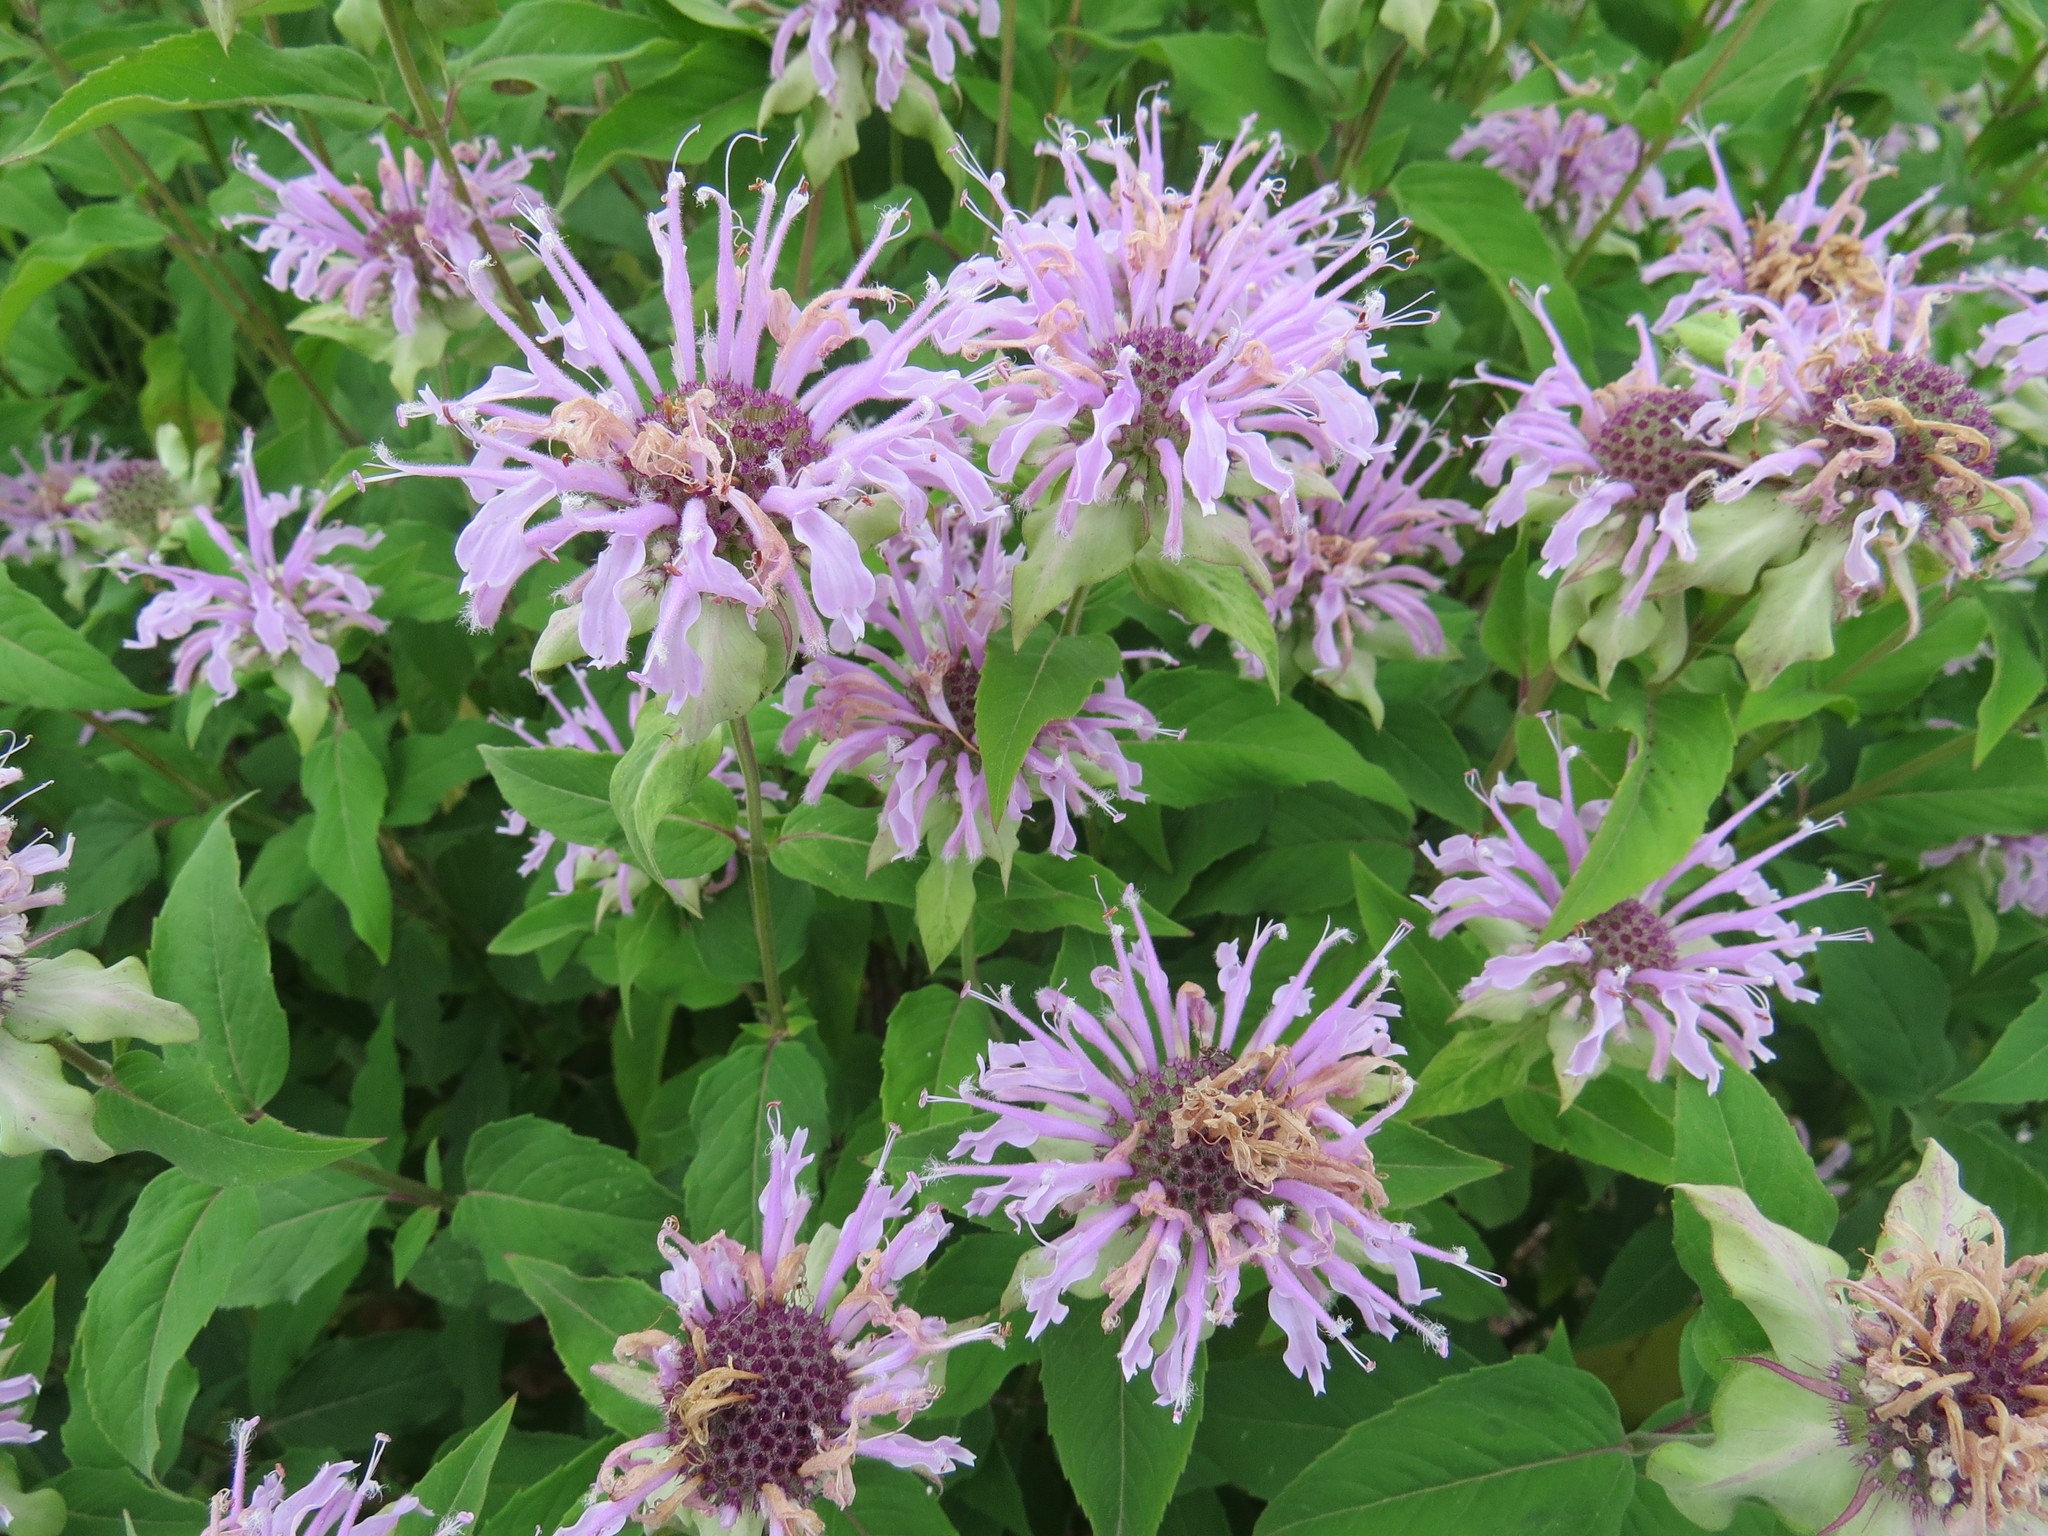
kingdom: Plantae
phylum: Tracheophyta
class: Magnoliopsida
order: Lamiales
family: Lamiaceae
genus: Monarda
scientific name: Monarda fistulosa
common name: Purple beebalm
